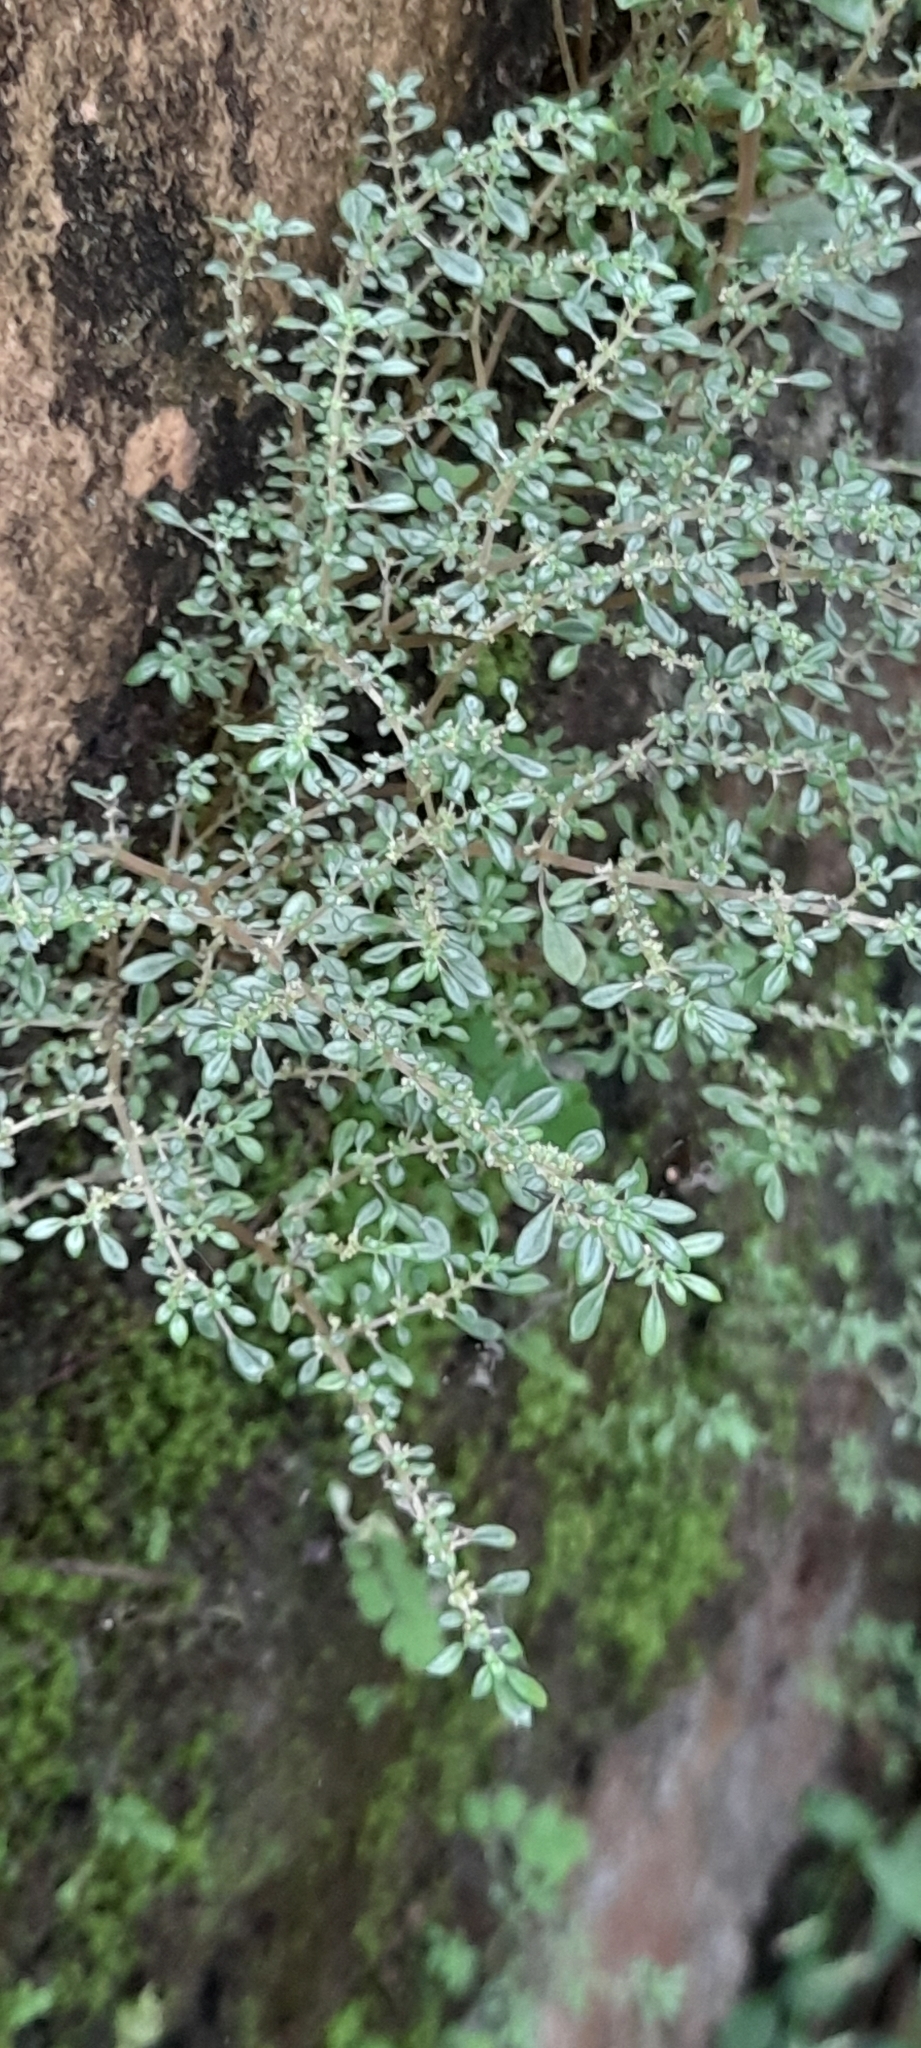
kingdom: Plantae
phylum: Tracheophyta
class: Magnoliopsida
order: Rosales
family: Urticaceae
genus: Pilea
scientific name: Pilea microphylla
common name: Artillery-plant
